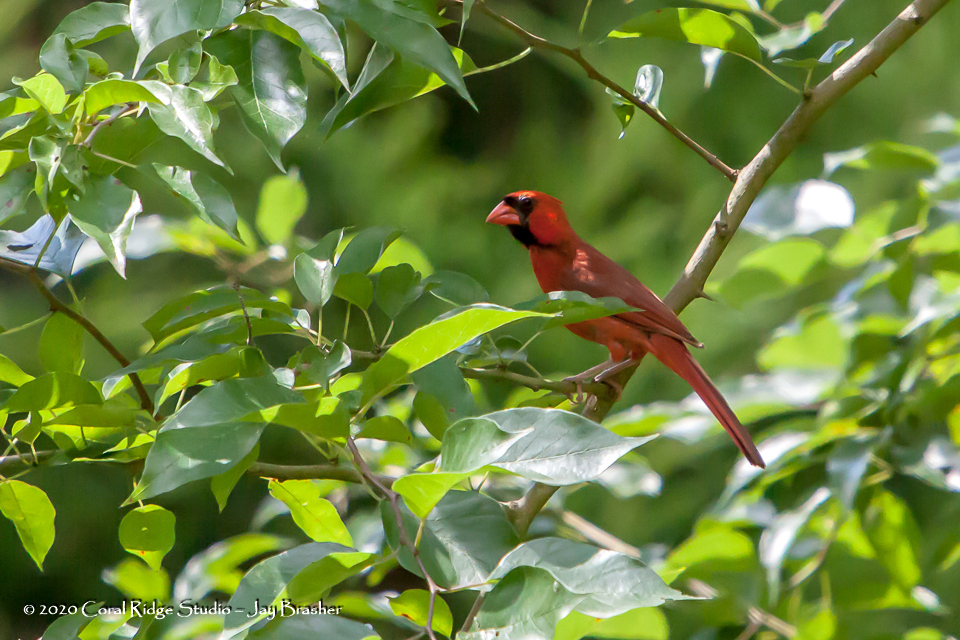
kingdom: Animalia
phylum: Chordata
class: Aves
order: Passeriformes
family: Cardinalidae
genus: Cardinalis
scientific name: Cardinalis cardinalis
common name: Northern cardinal
